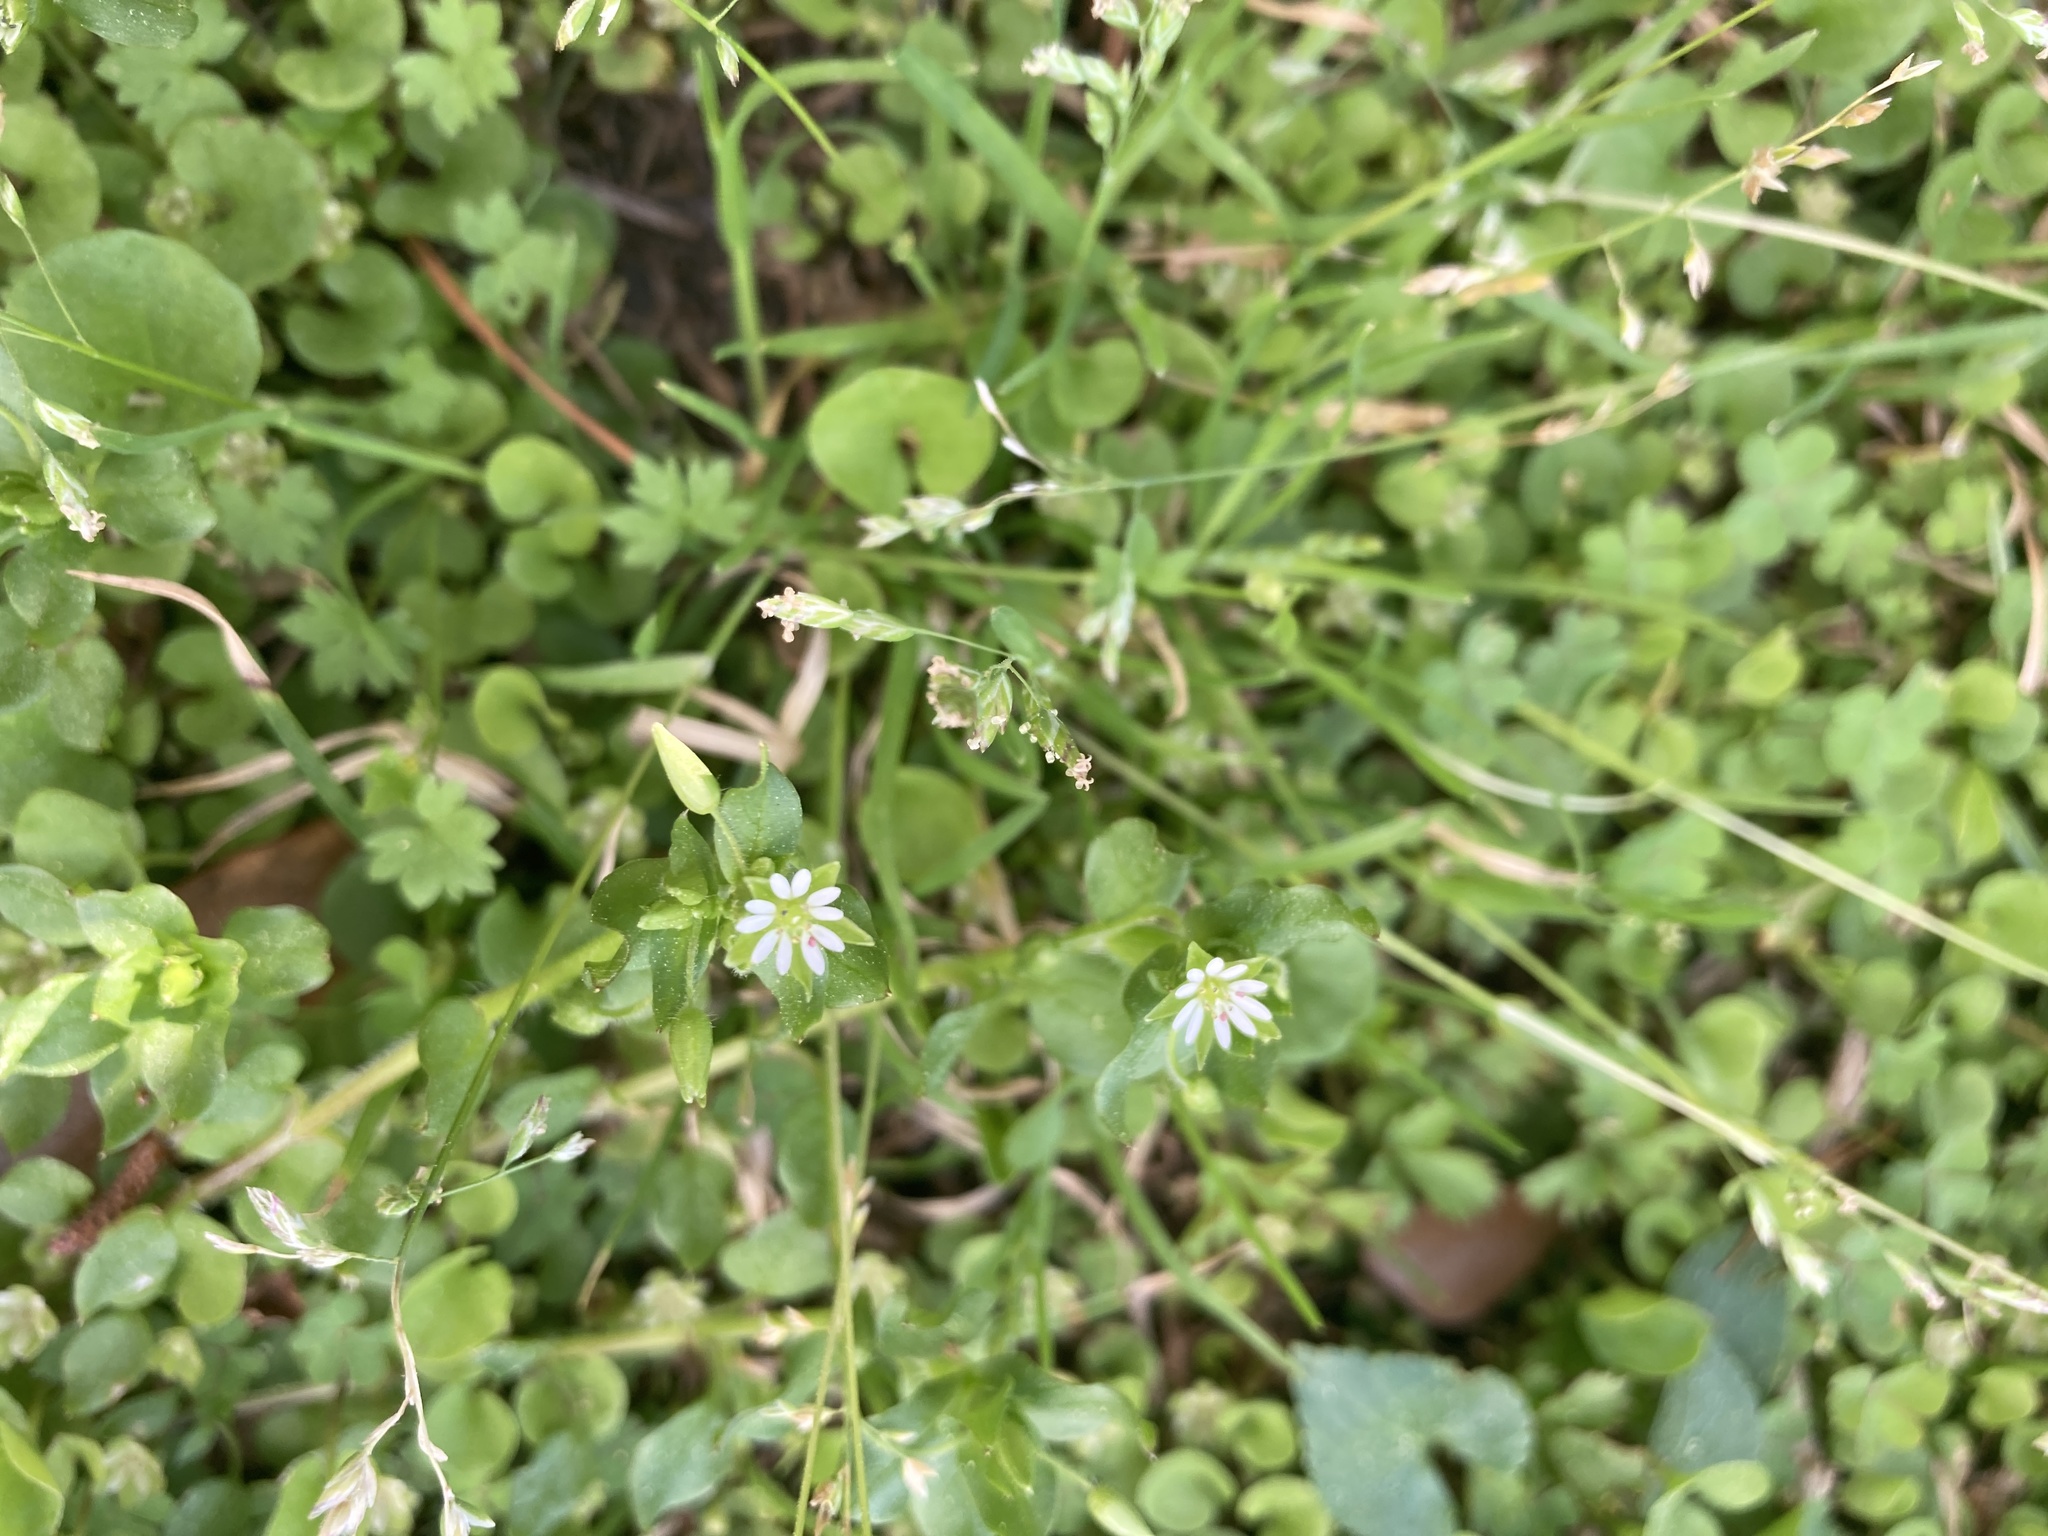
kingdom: Plantae
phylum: Tracheophyta
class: Magnoliopsida
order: Caryophyllales
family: Caryophyllaceae
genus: Stellaria
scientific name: Stellaria media
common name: Common chickweed
